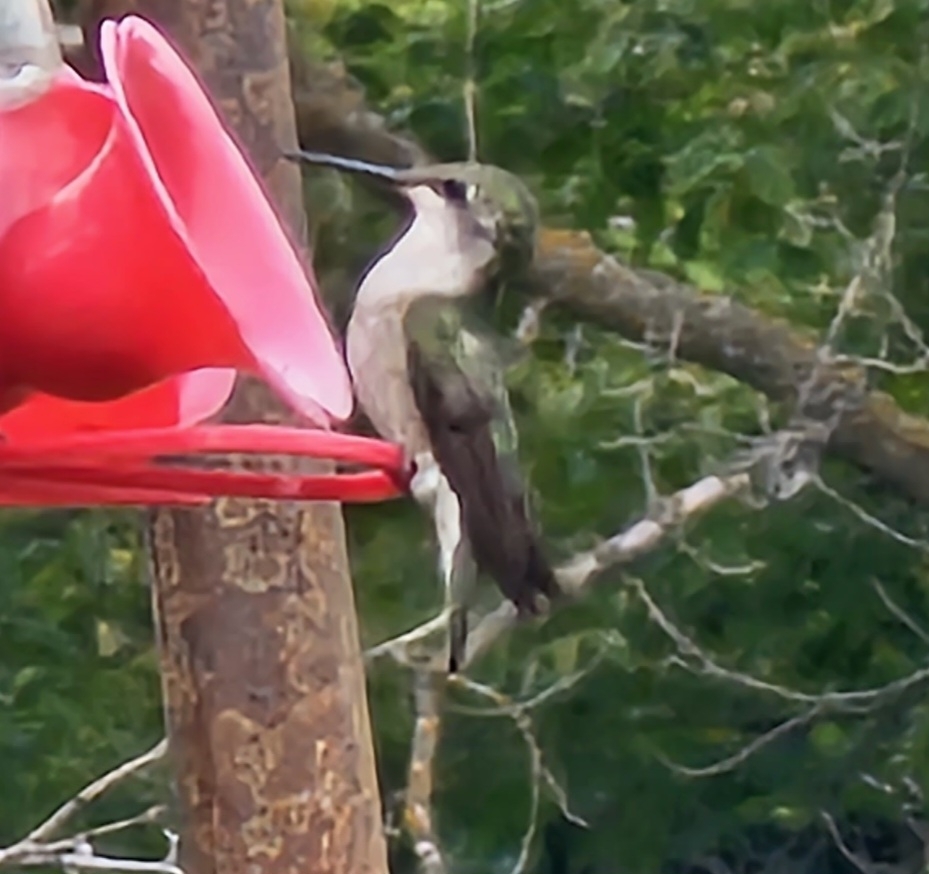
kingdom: Animalia
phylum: Chordata
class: Aves
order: Apodiformes
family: Trochilidae
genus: Archilochus
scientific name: Archilochus colubris
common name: Ruby-throated hummingbird
